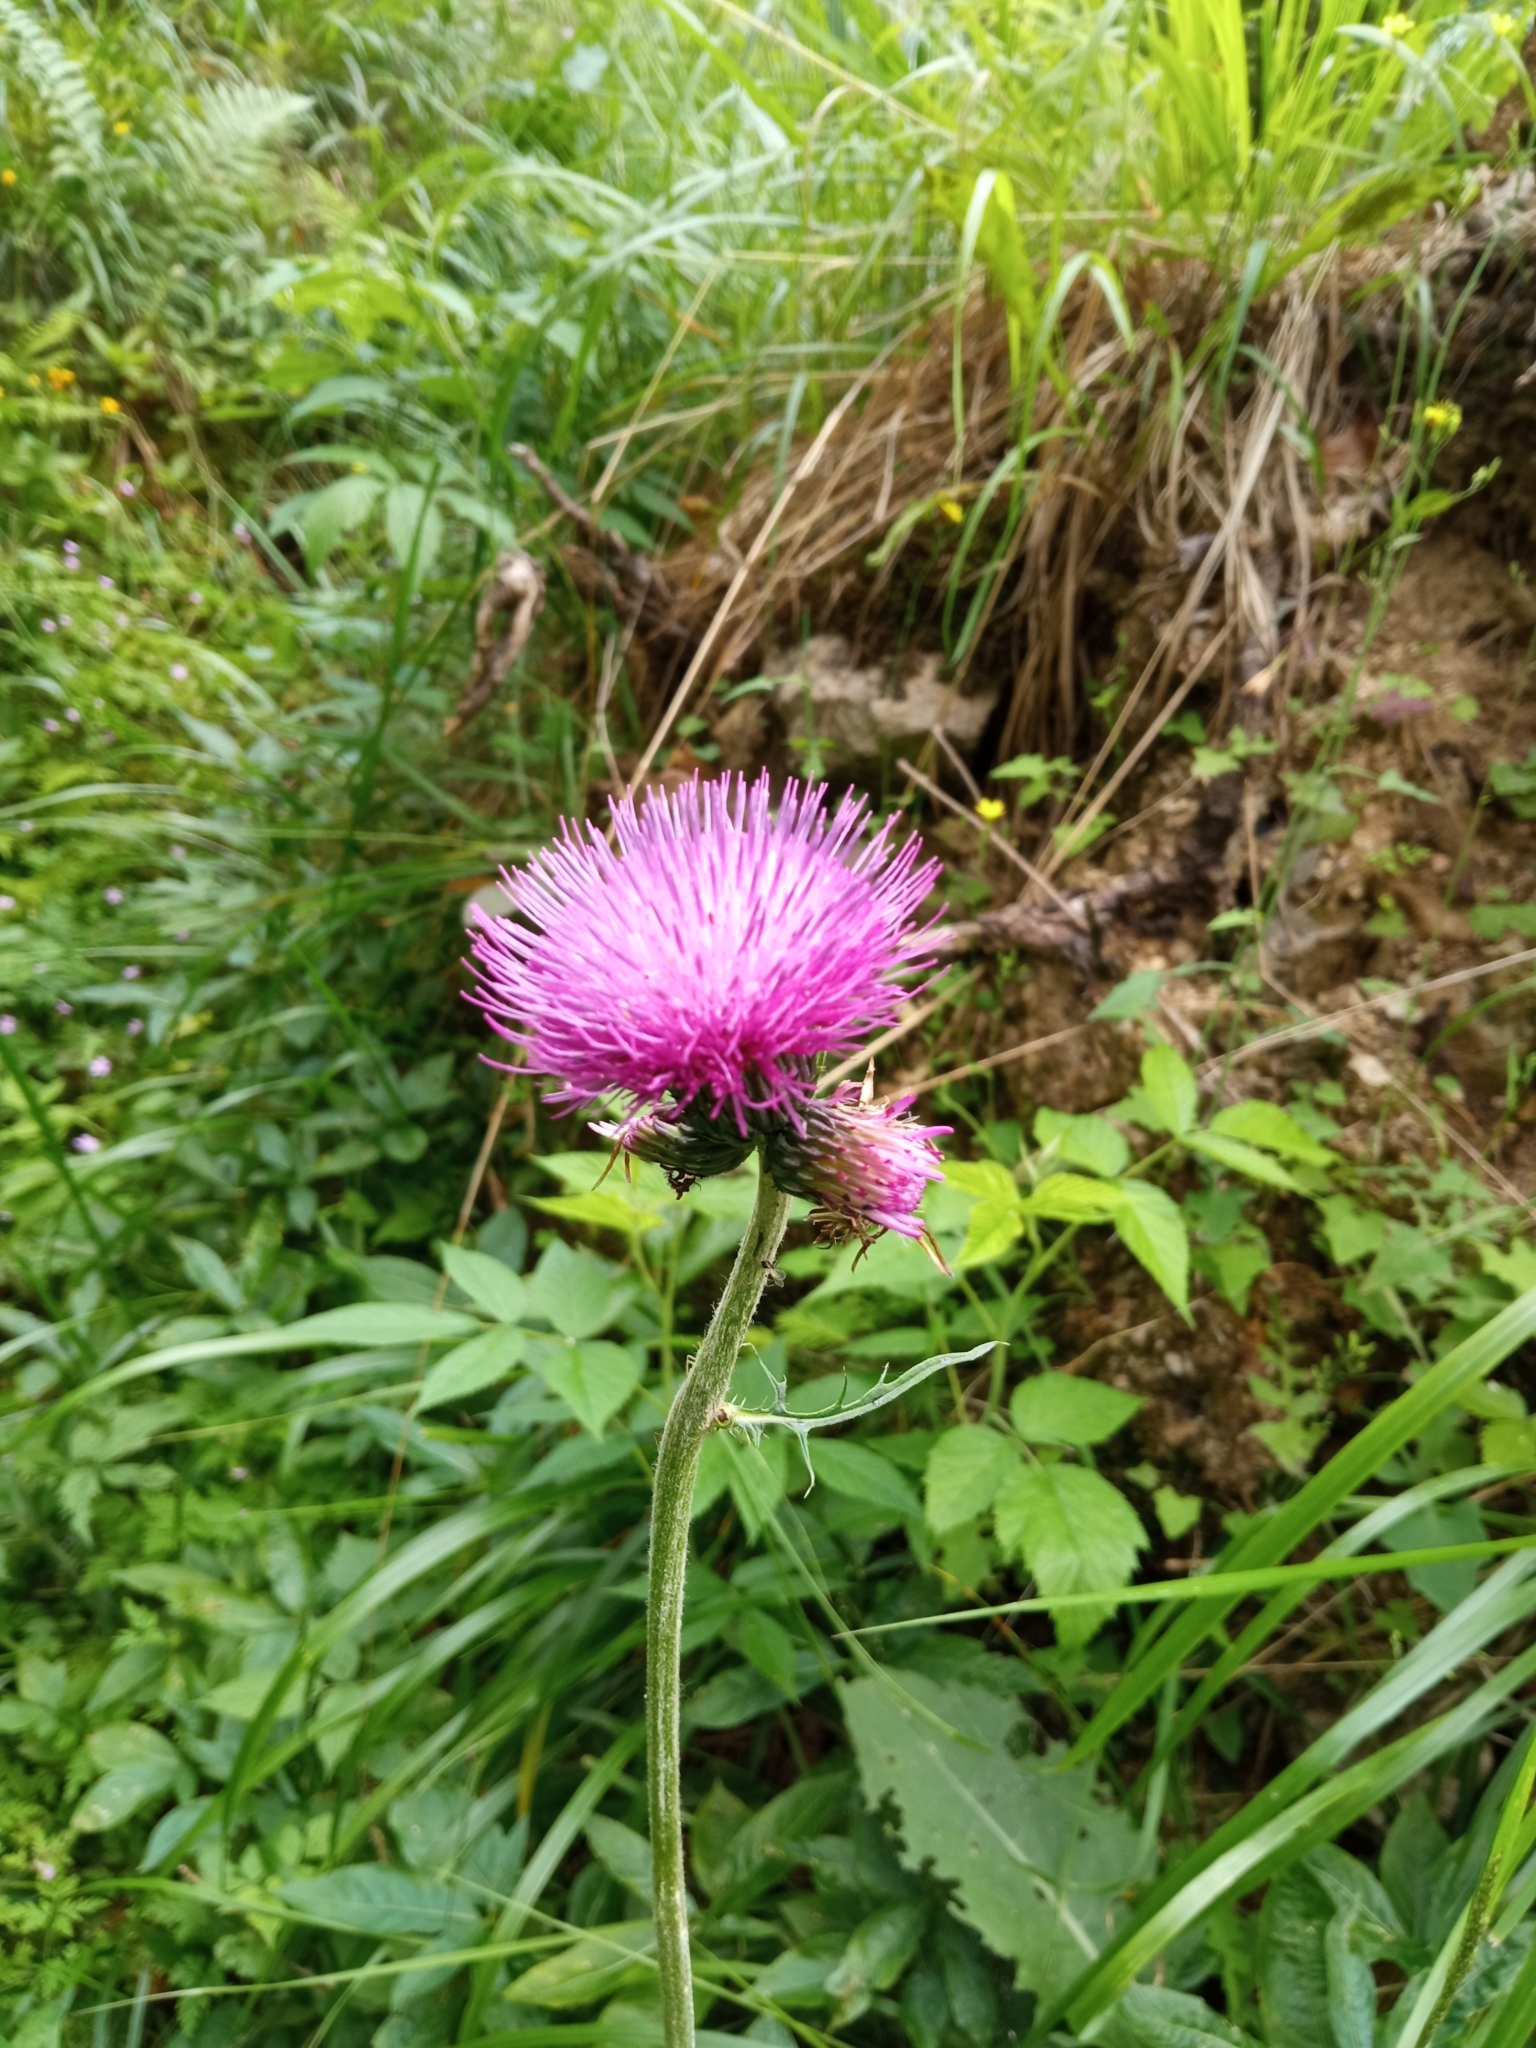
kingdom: Plantae
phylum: Tracheophyta
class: Magnoliopsida
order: Asterales
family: Asteraceae
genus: Cirsium
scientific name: Cirsium heterophyllum
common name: Melancholy thistle
